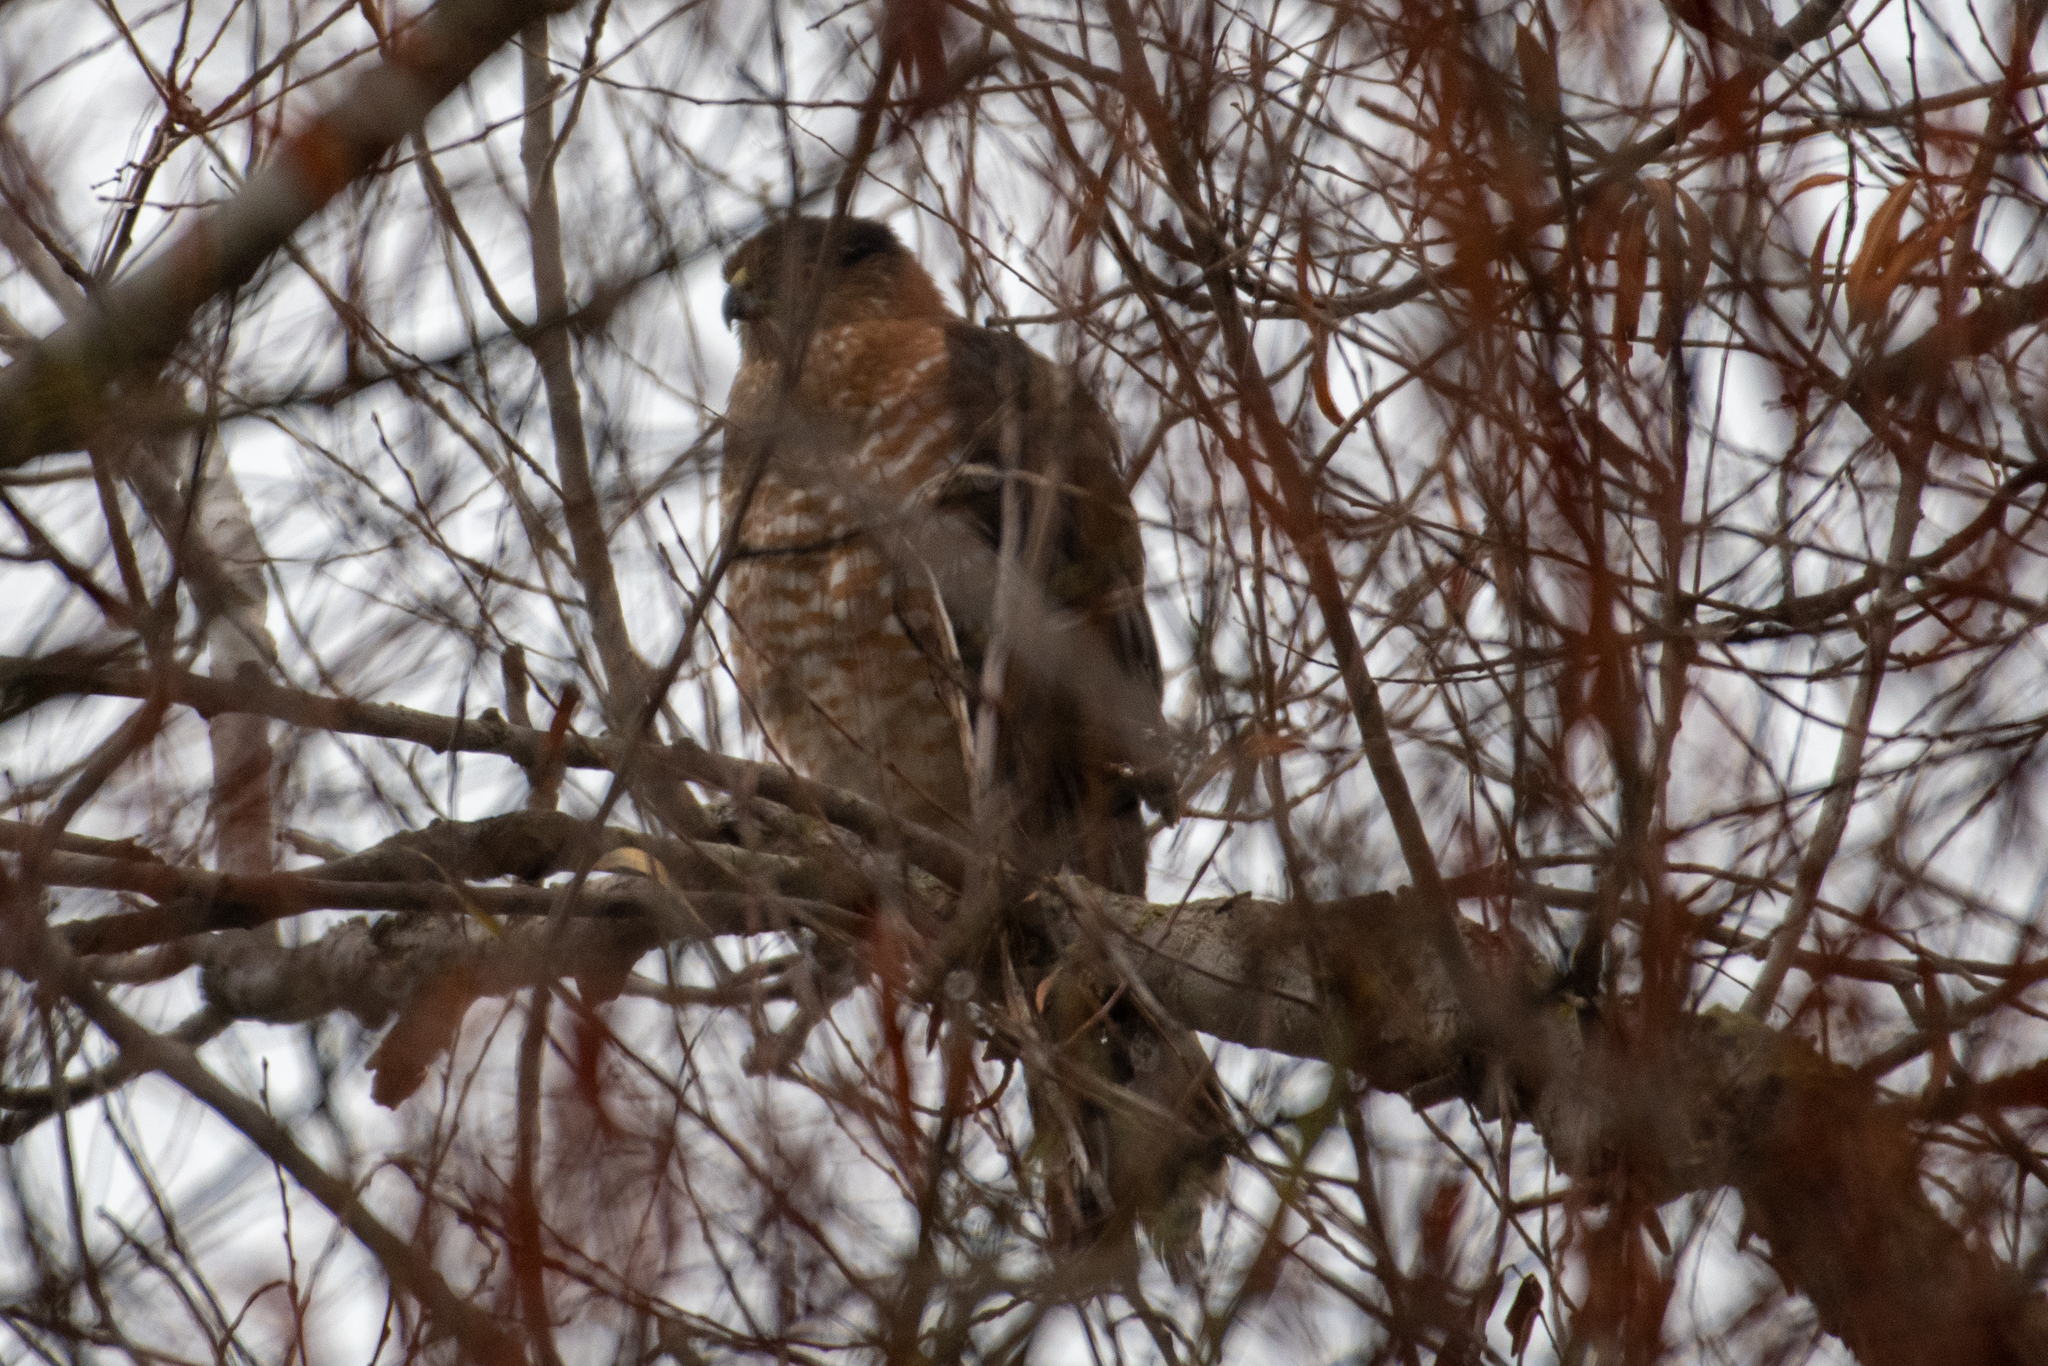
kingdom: Animalia
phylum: Chordata
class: Aves
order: Accipitriformes
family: Accipitridae
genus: Accipiter
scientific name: Accipiter cooperii
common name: Cooper's hawk
